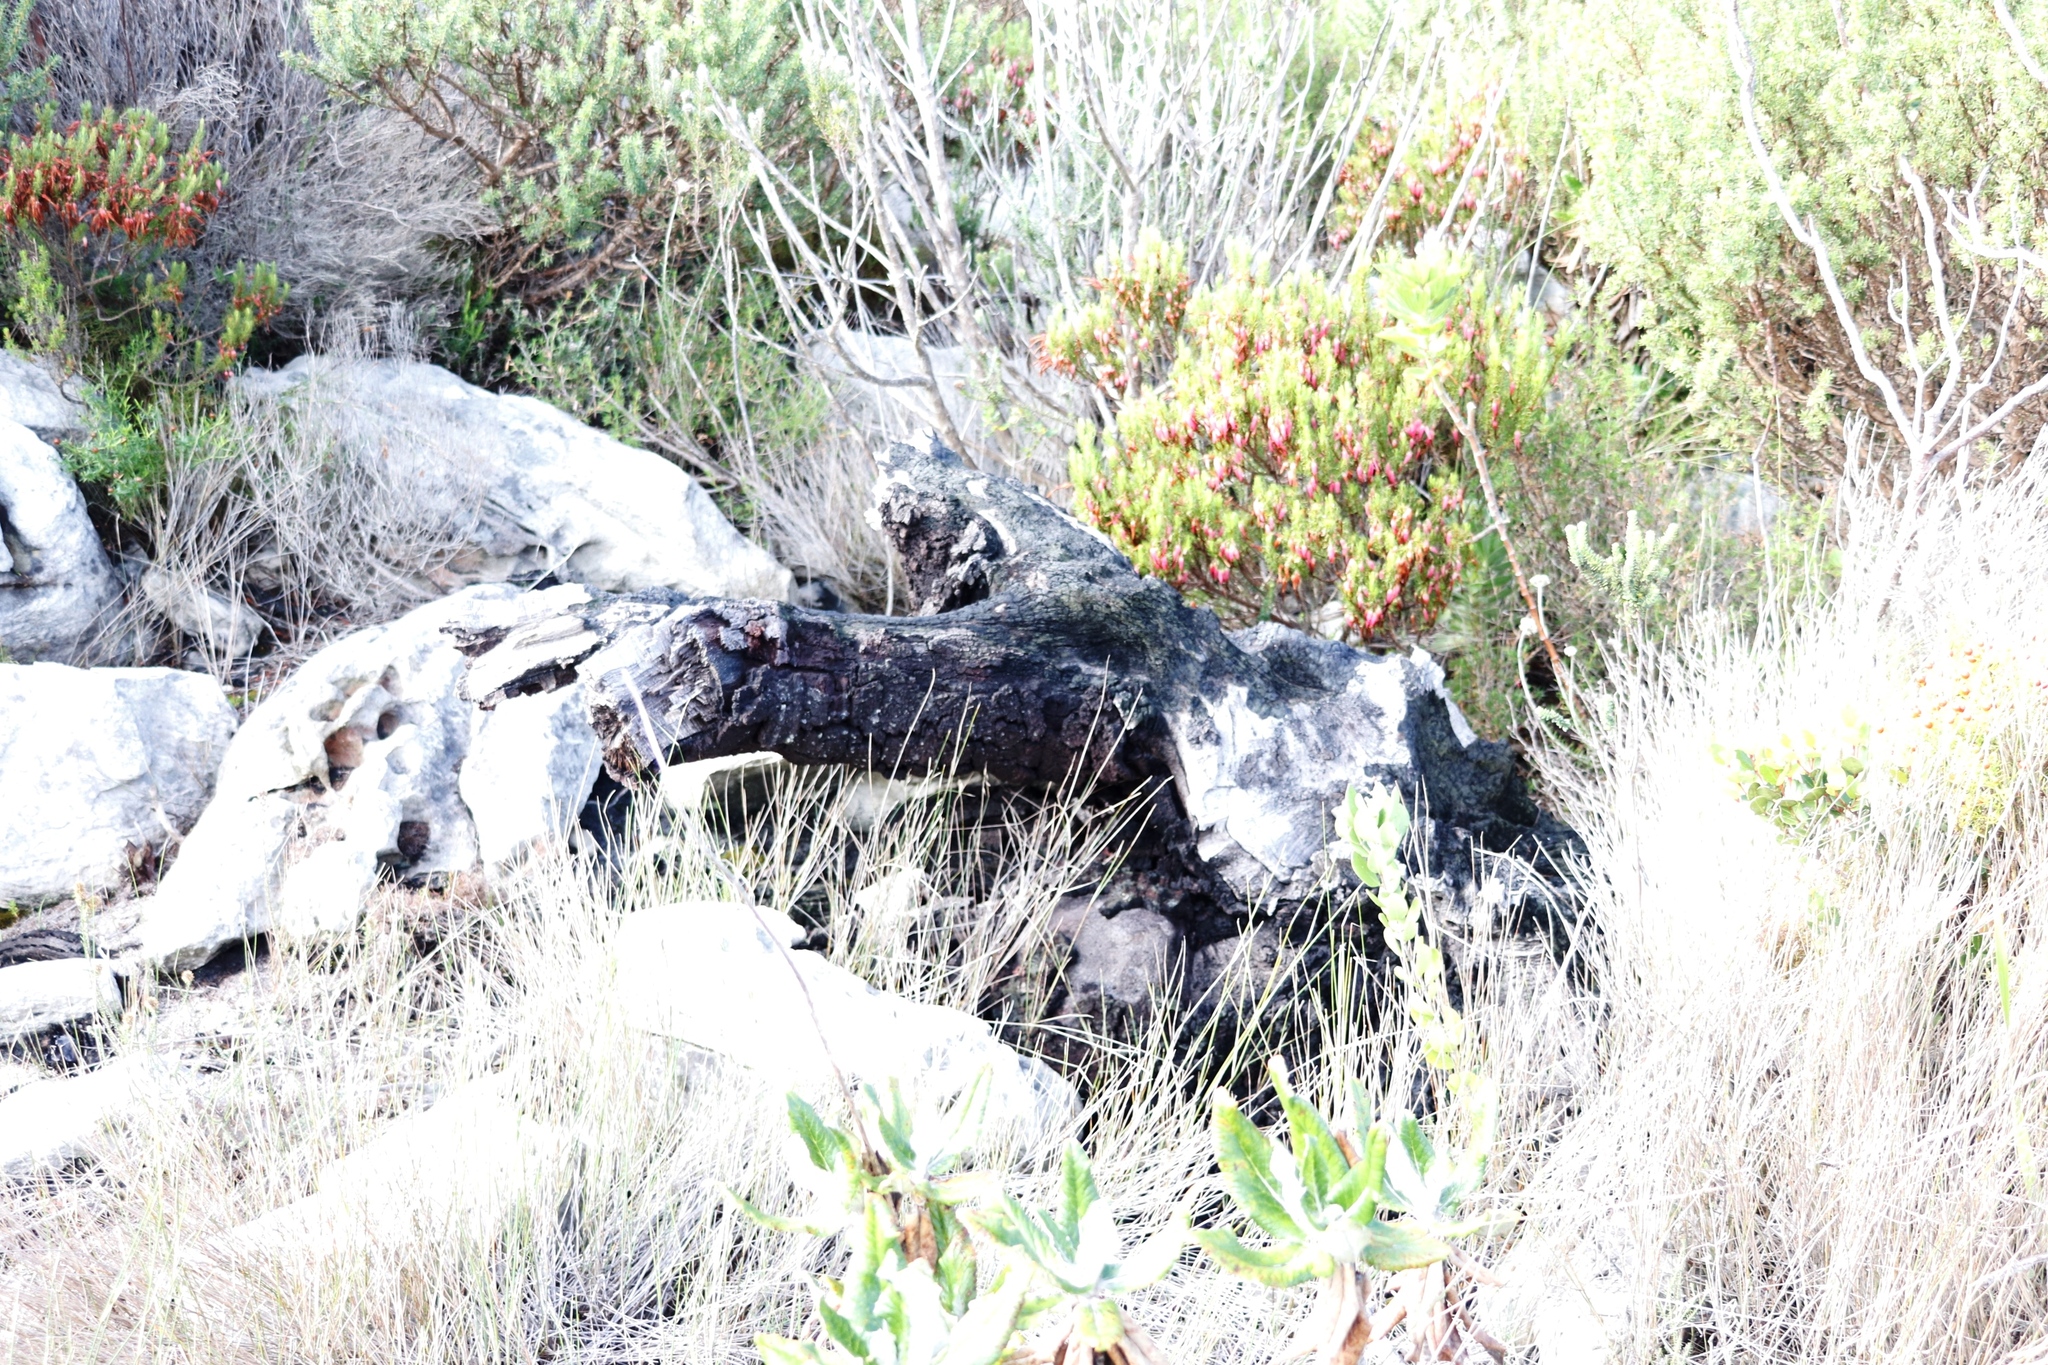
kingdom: Plantae
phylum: Tracheophyta
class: Magnoliopsida
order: Ericales
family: Ericaceae
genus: Erica
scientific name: Erica plukenetii
